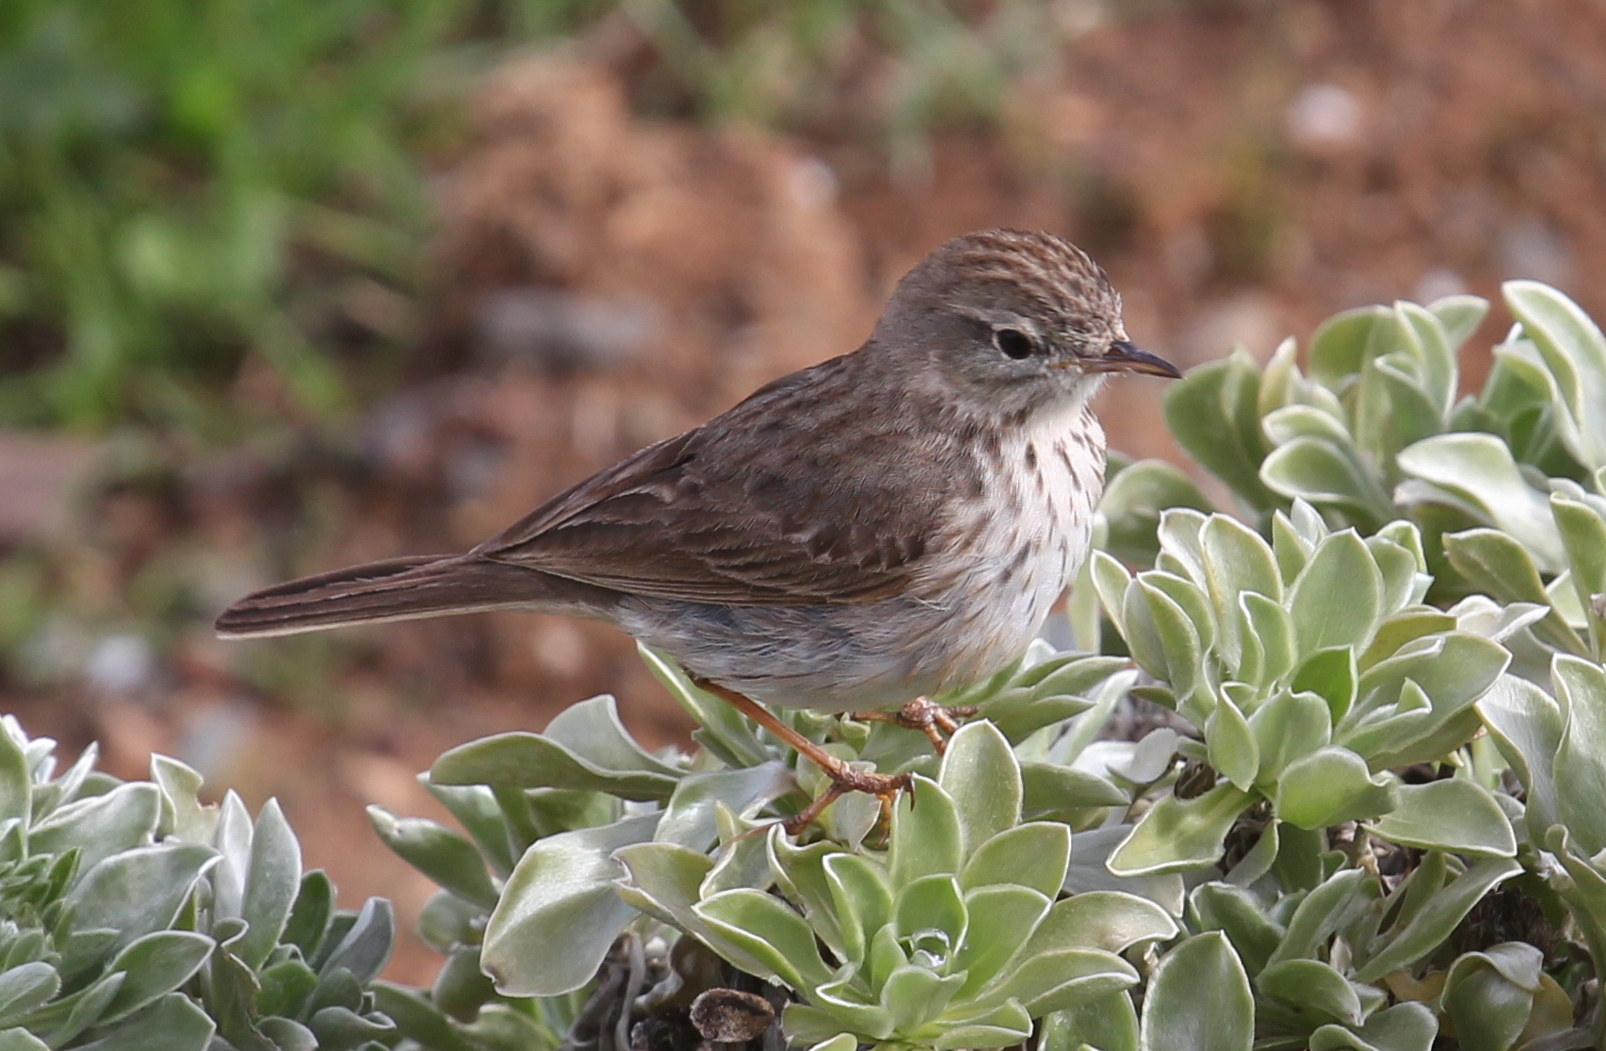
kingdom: Animalia
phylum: Chordata
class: Aves
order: Passeriformes
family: Motacillidae
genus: Anthus
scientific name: Anthus berthelotii
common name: Berthelot's pipit
